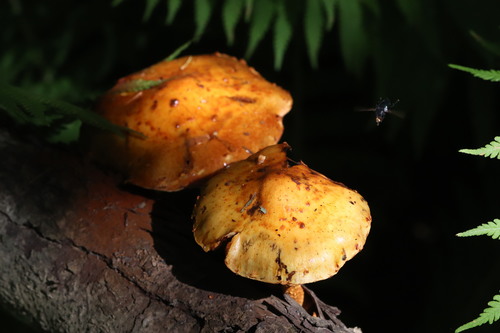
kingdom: Fungi
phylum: Basidiomycota
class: Agaricomycetes
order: Agaricales
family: Strophariaceae
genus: Pholiota
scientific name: Pholiota
